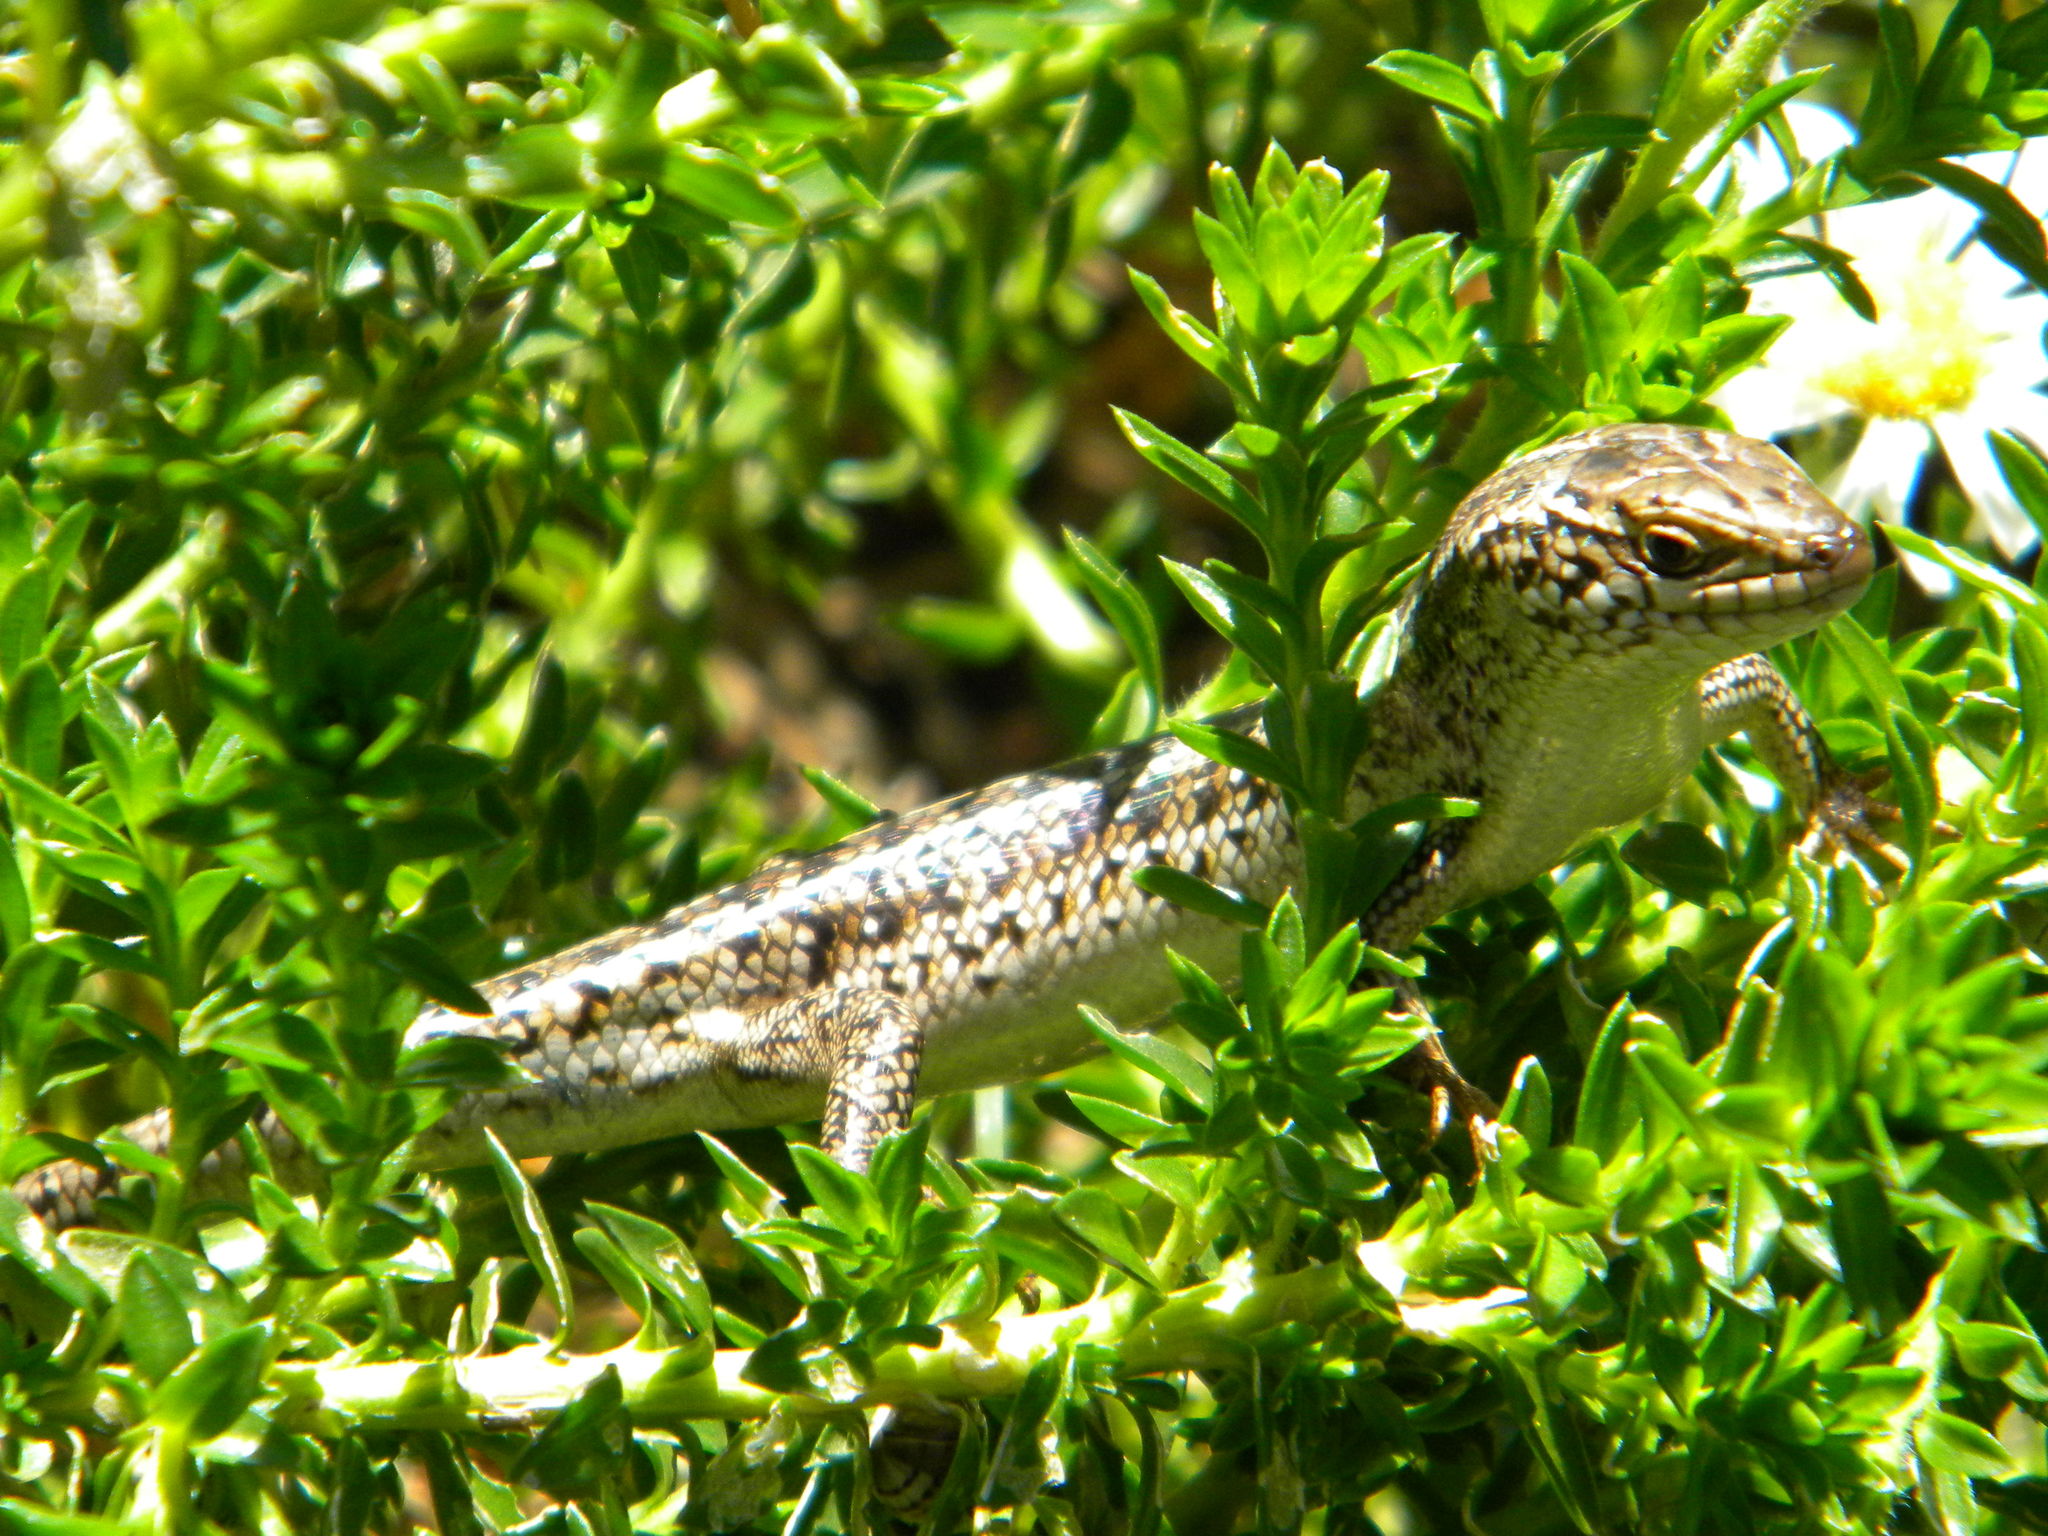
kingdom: Animalia
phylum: Chordata
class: Squamata
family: Scincidae
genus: Trachylepis
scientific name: Trachylepis capensis
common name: Cape skink
